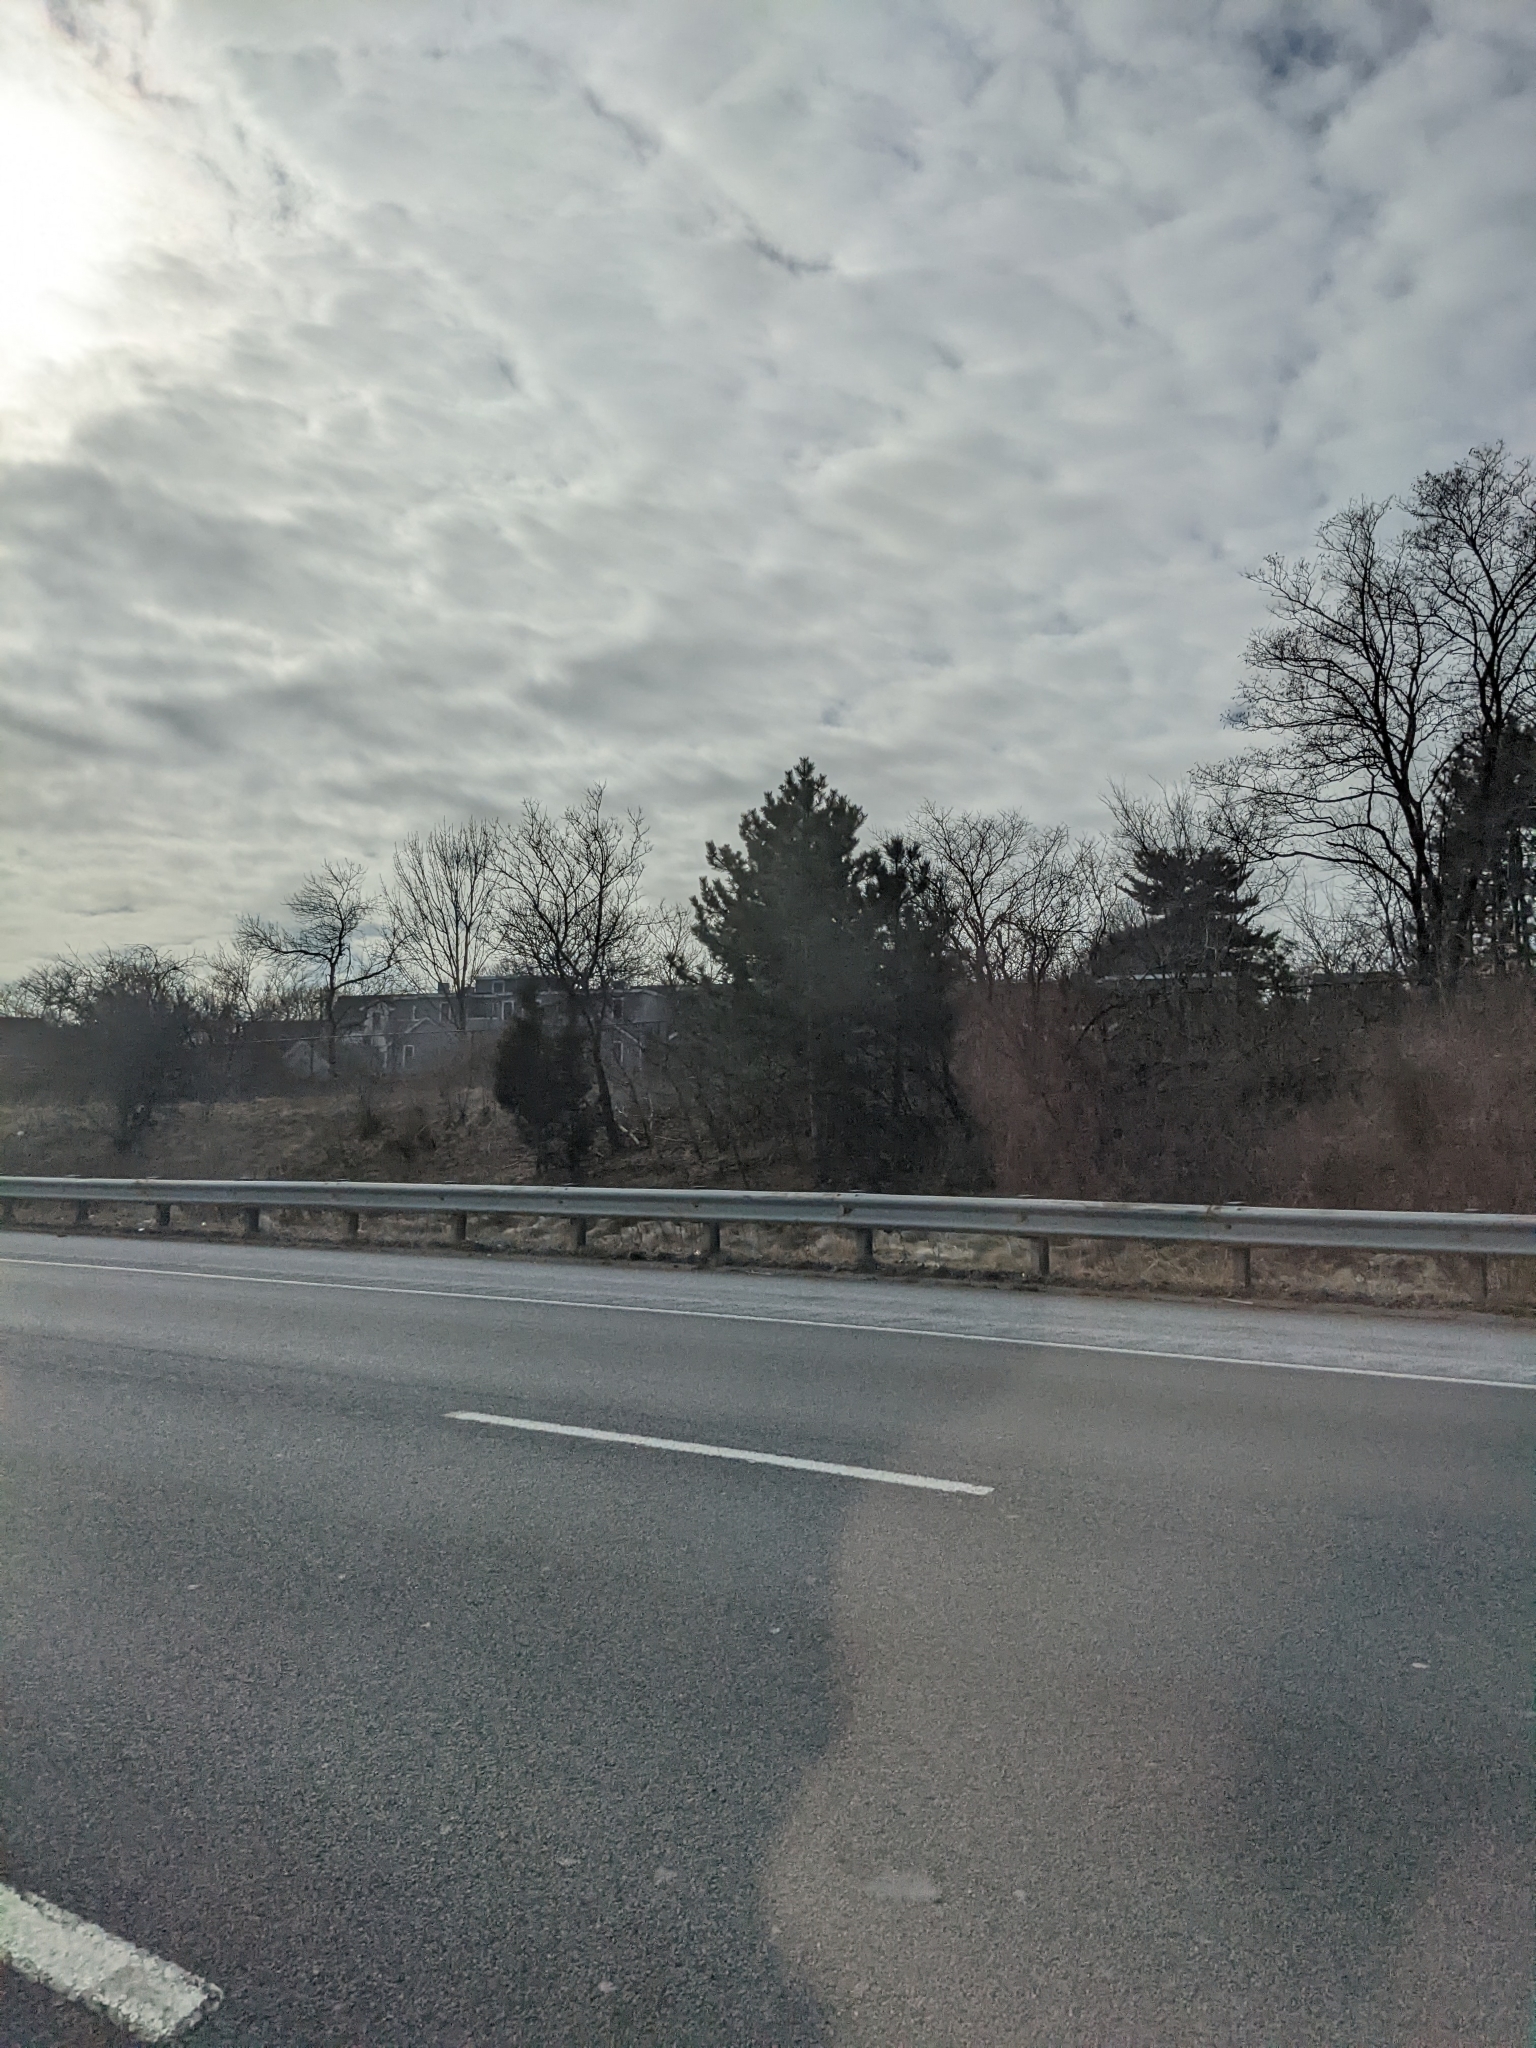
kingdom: Plantae
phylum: Tracheophyta
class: Pinopsida
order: Pinales
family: Pinaceae
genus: Pinus
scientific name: Pinus strobus
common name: Weymouth pine
